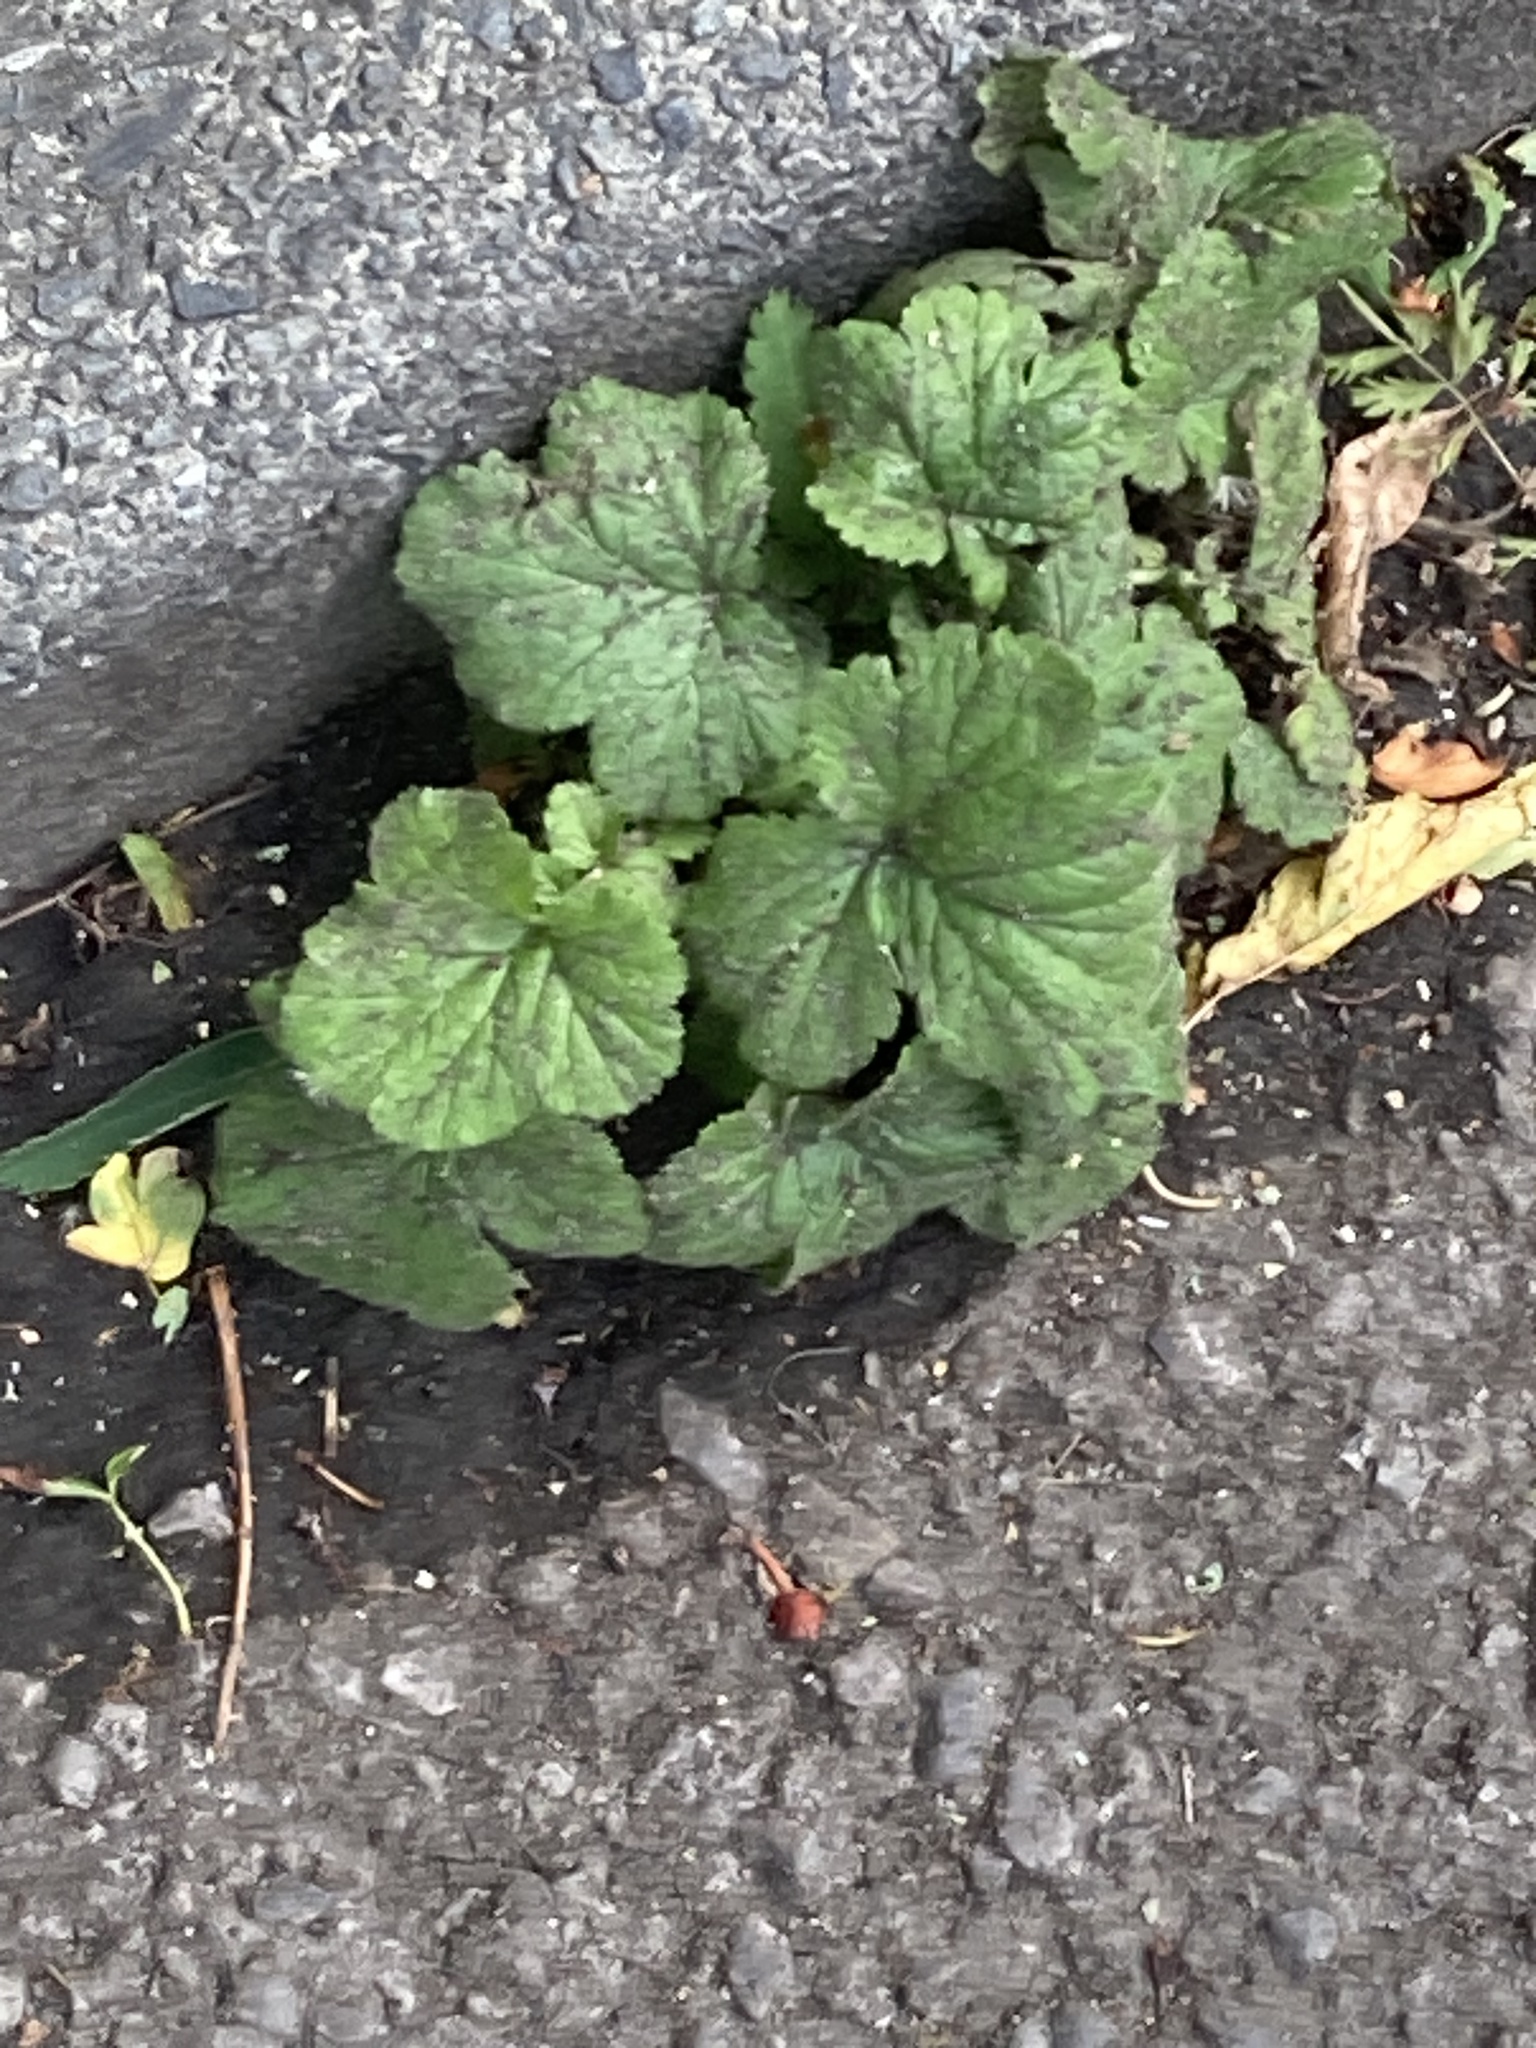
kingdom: Plantae
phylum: Tracheophyta
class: Magnoliopsida
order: Rosales
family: Rosaceae
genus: Geum
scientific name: Geum urbanum
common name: Wood avens
